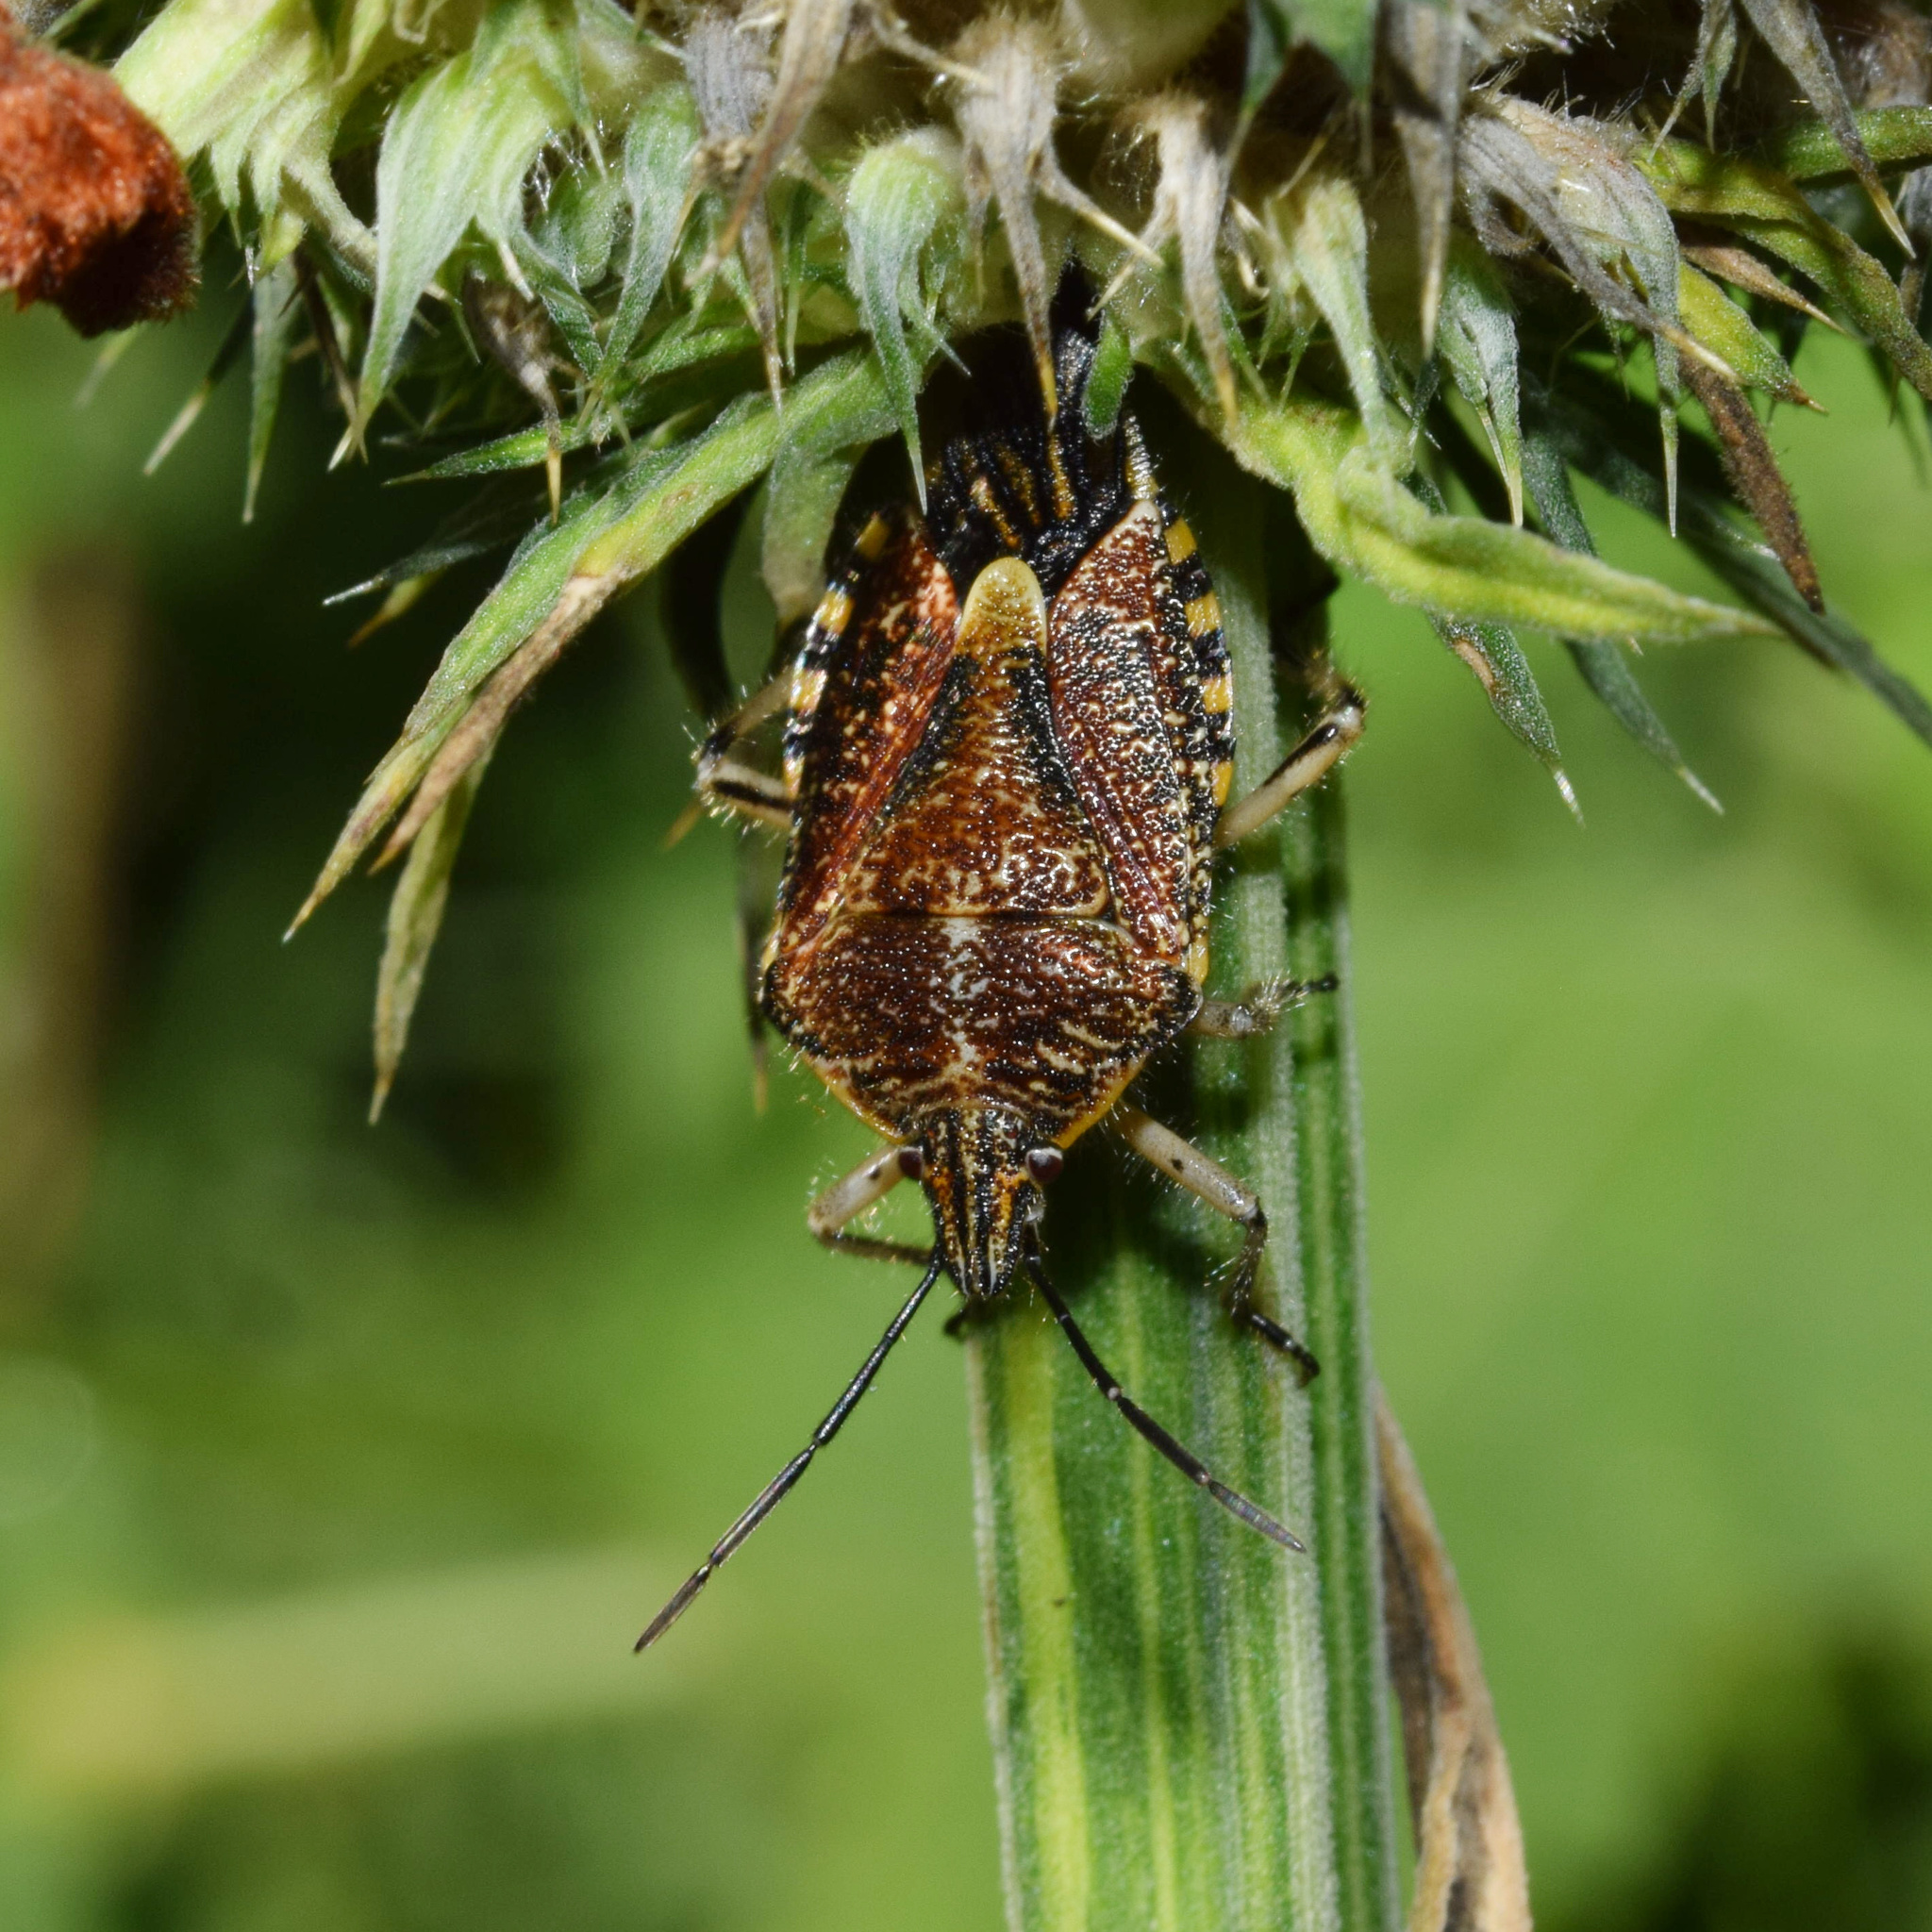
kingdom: Animalia
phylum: Arthropoda
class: Insecta
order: Hemiptera
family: Pentatomidae
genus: Agonoscelis
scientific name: Agonoscelis versicoloratus
